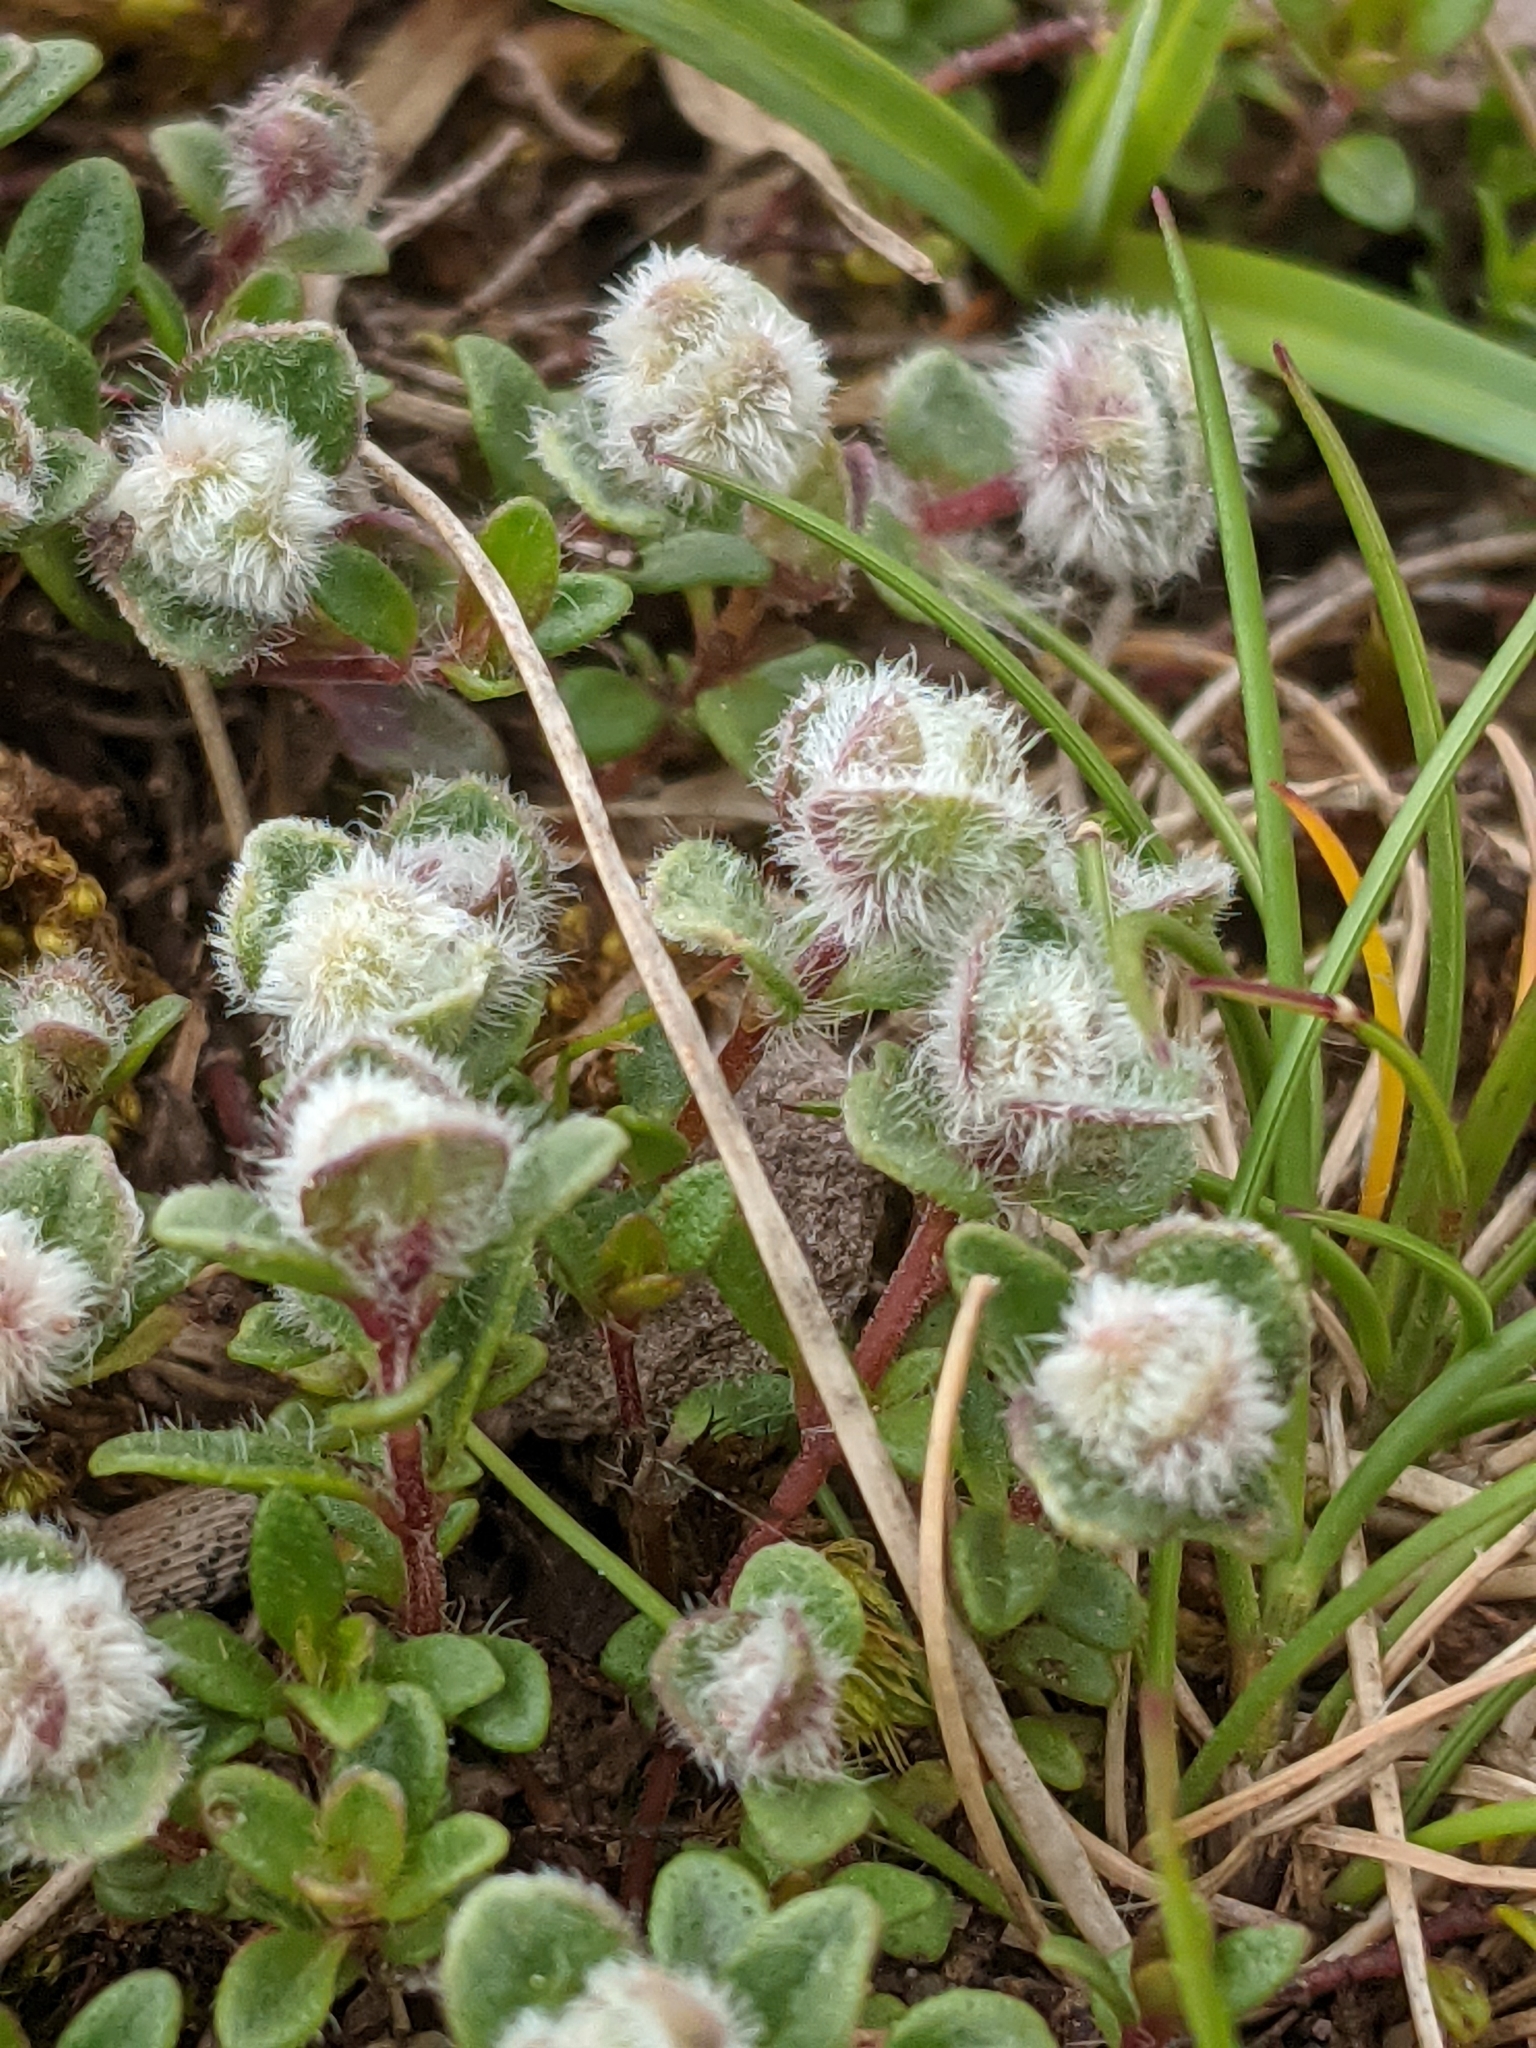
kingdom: Animalia
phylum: Arthropoda
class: Arachnida
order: Trombidiformes
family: Eriophyidae
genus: Aceria
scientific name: Aceria thomasi
